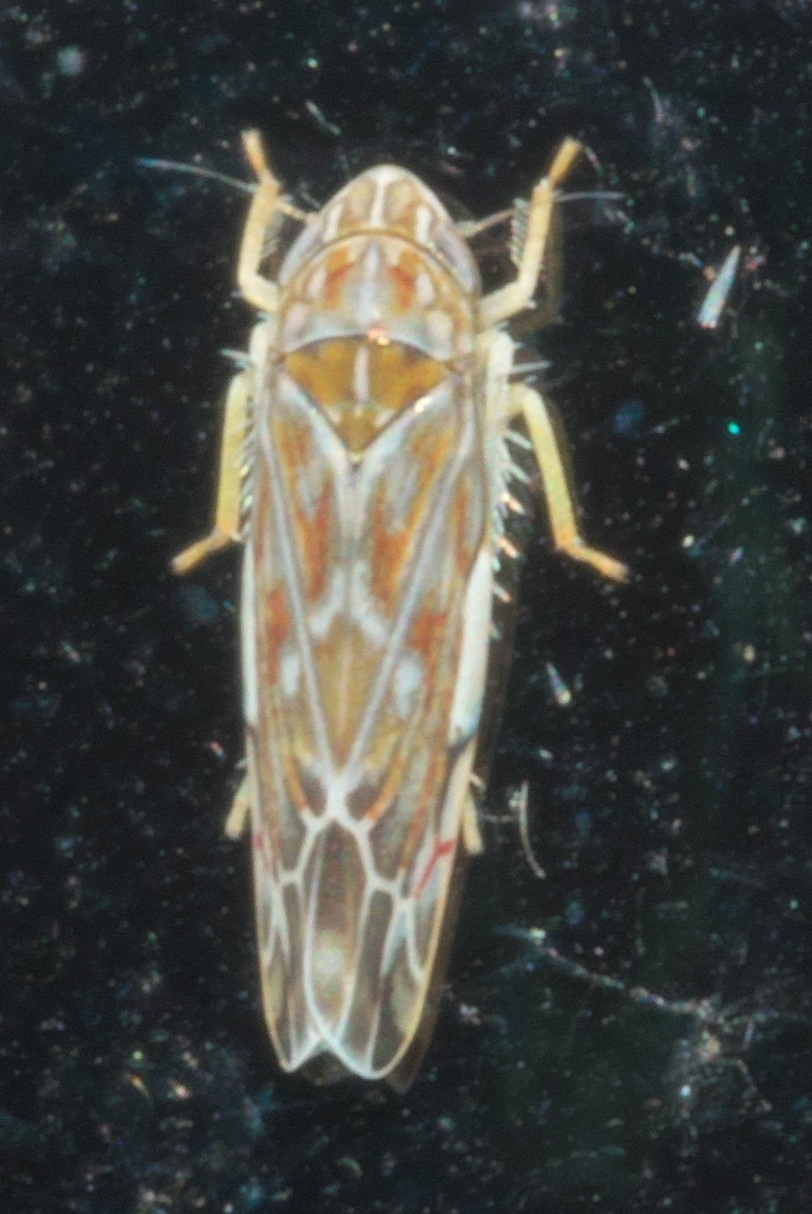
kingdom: Animalia
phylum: Arthropoda
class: Insecta
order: Hemiptera
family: Cicadellidae
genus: Erasmoneura
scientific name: Erasmoneura vulnerata
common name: The wounded leafhopper
